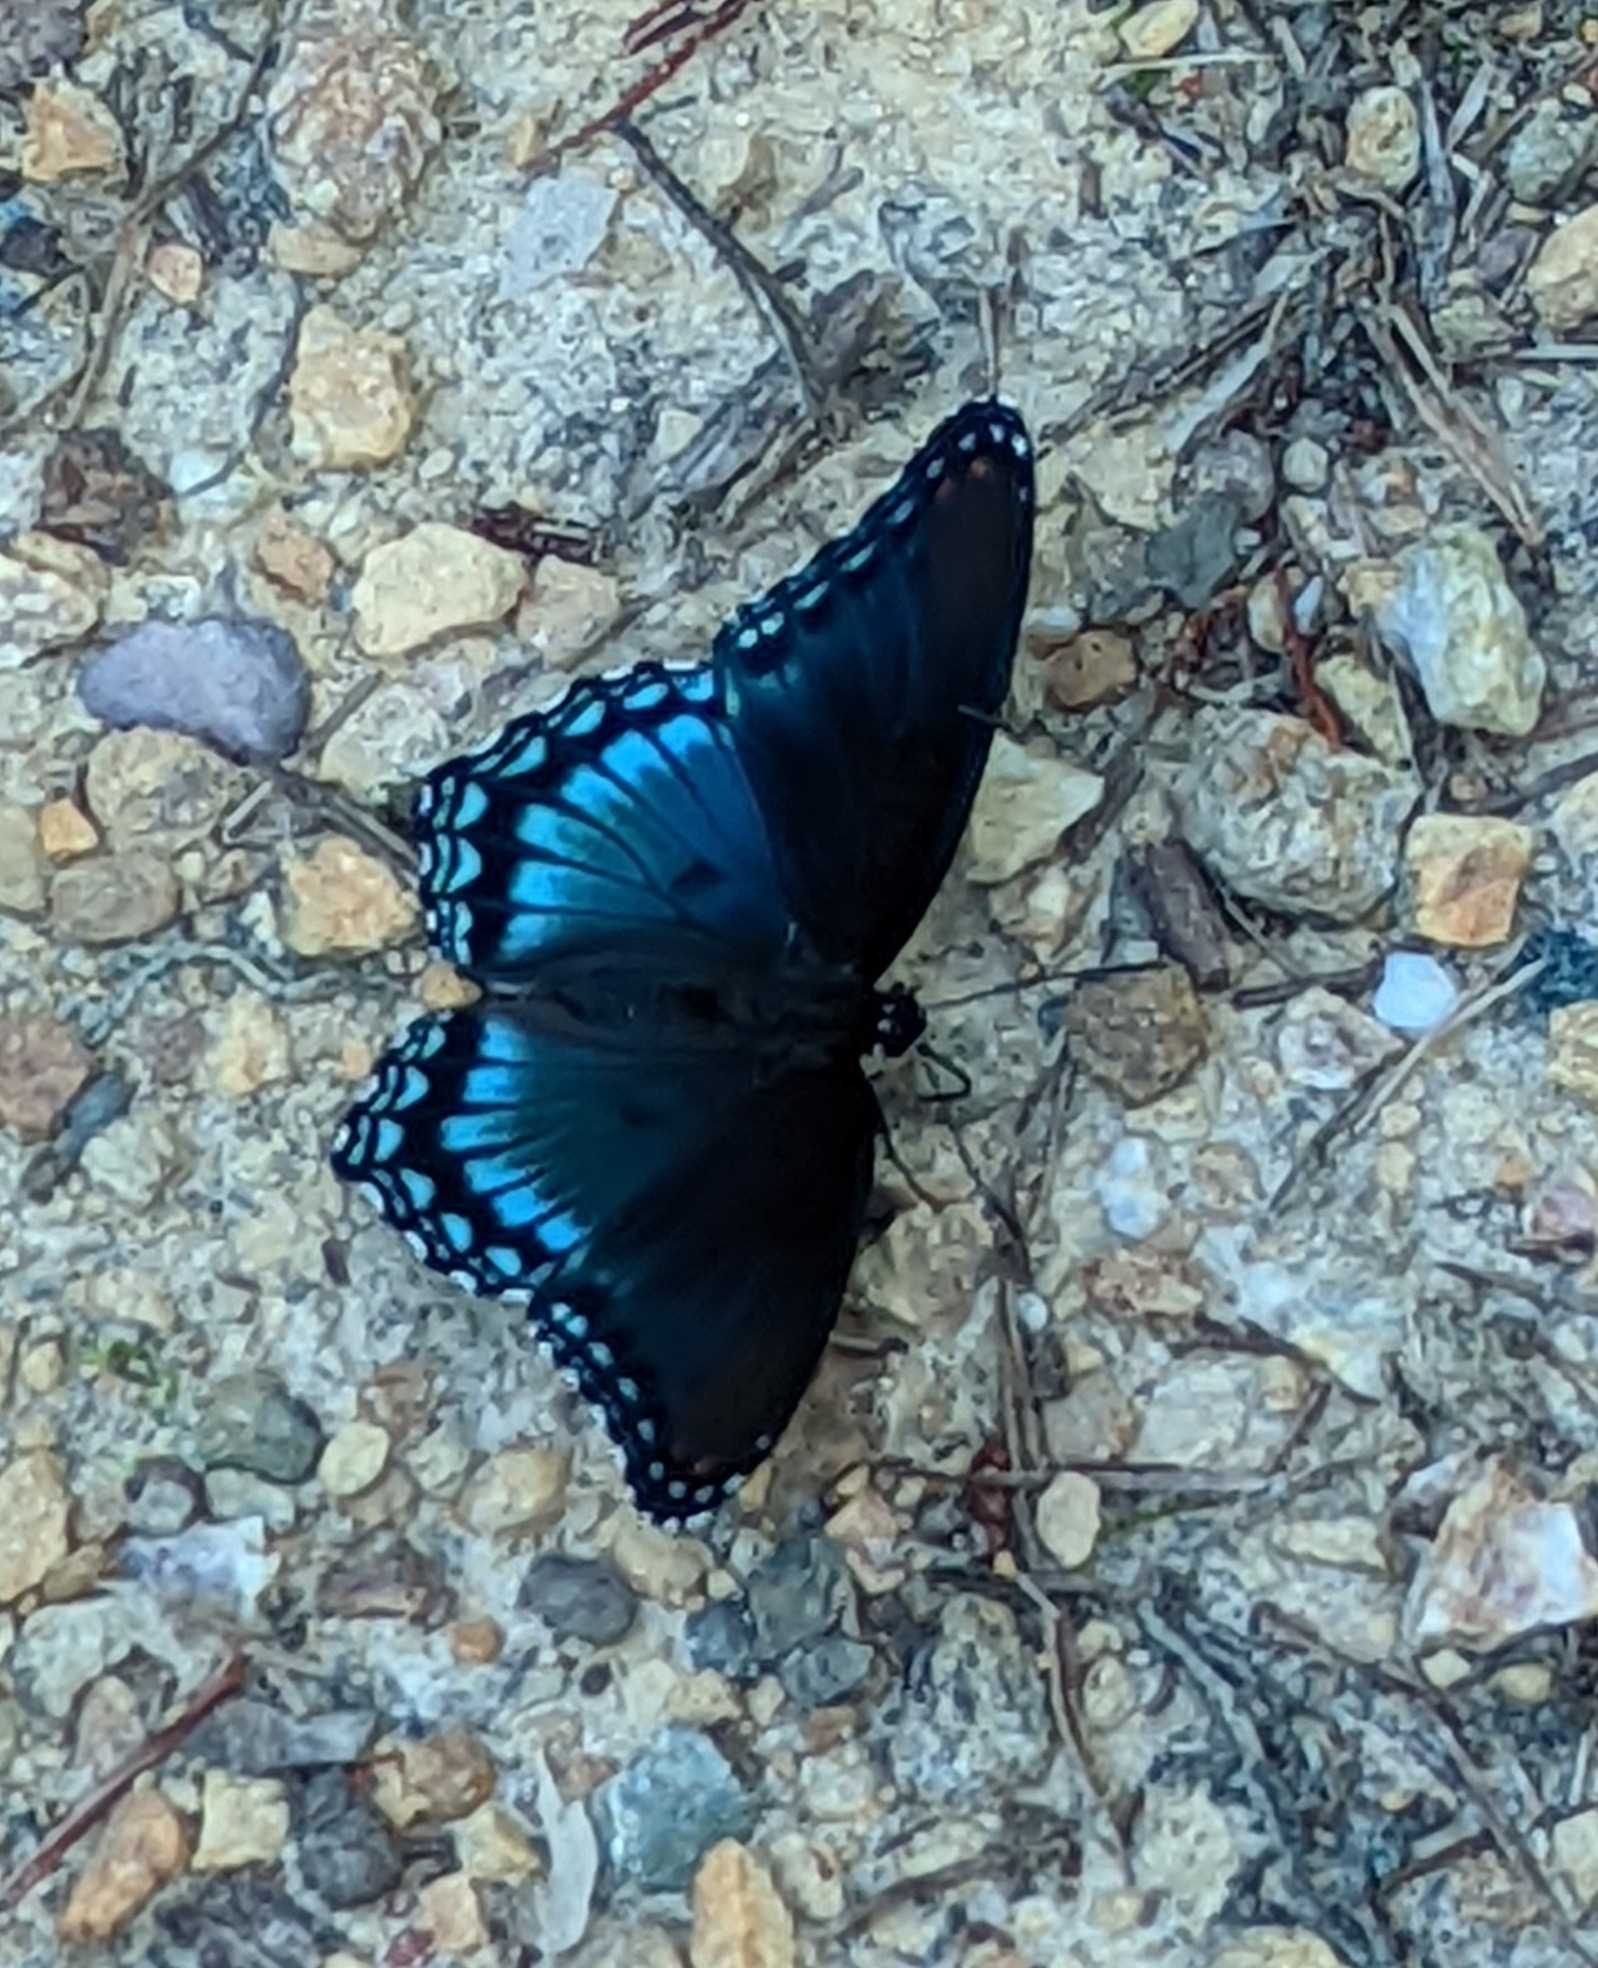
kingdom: Animalia
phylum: Arthropoda
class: Insecta
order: Lepidoptera
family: Nymphalidae
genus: Limenitis
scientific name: Limenitis astyanax
